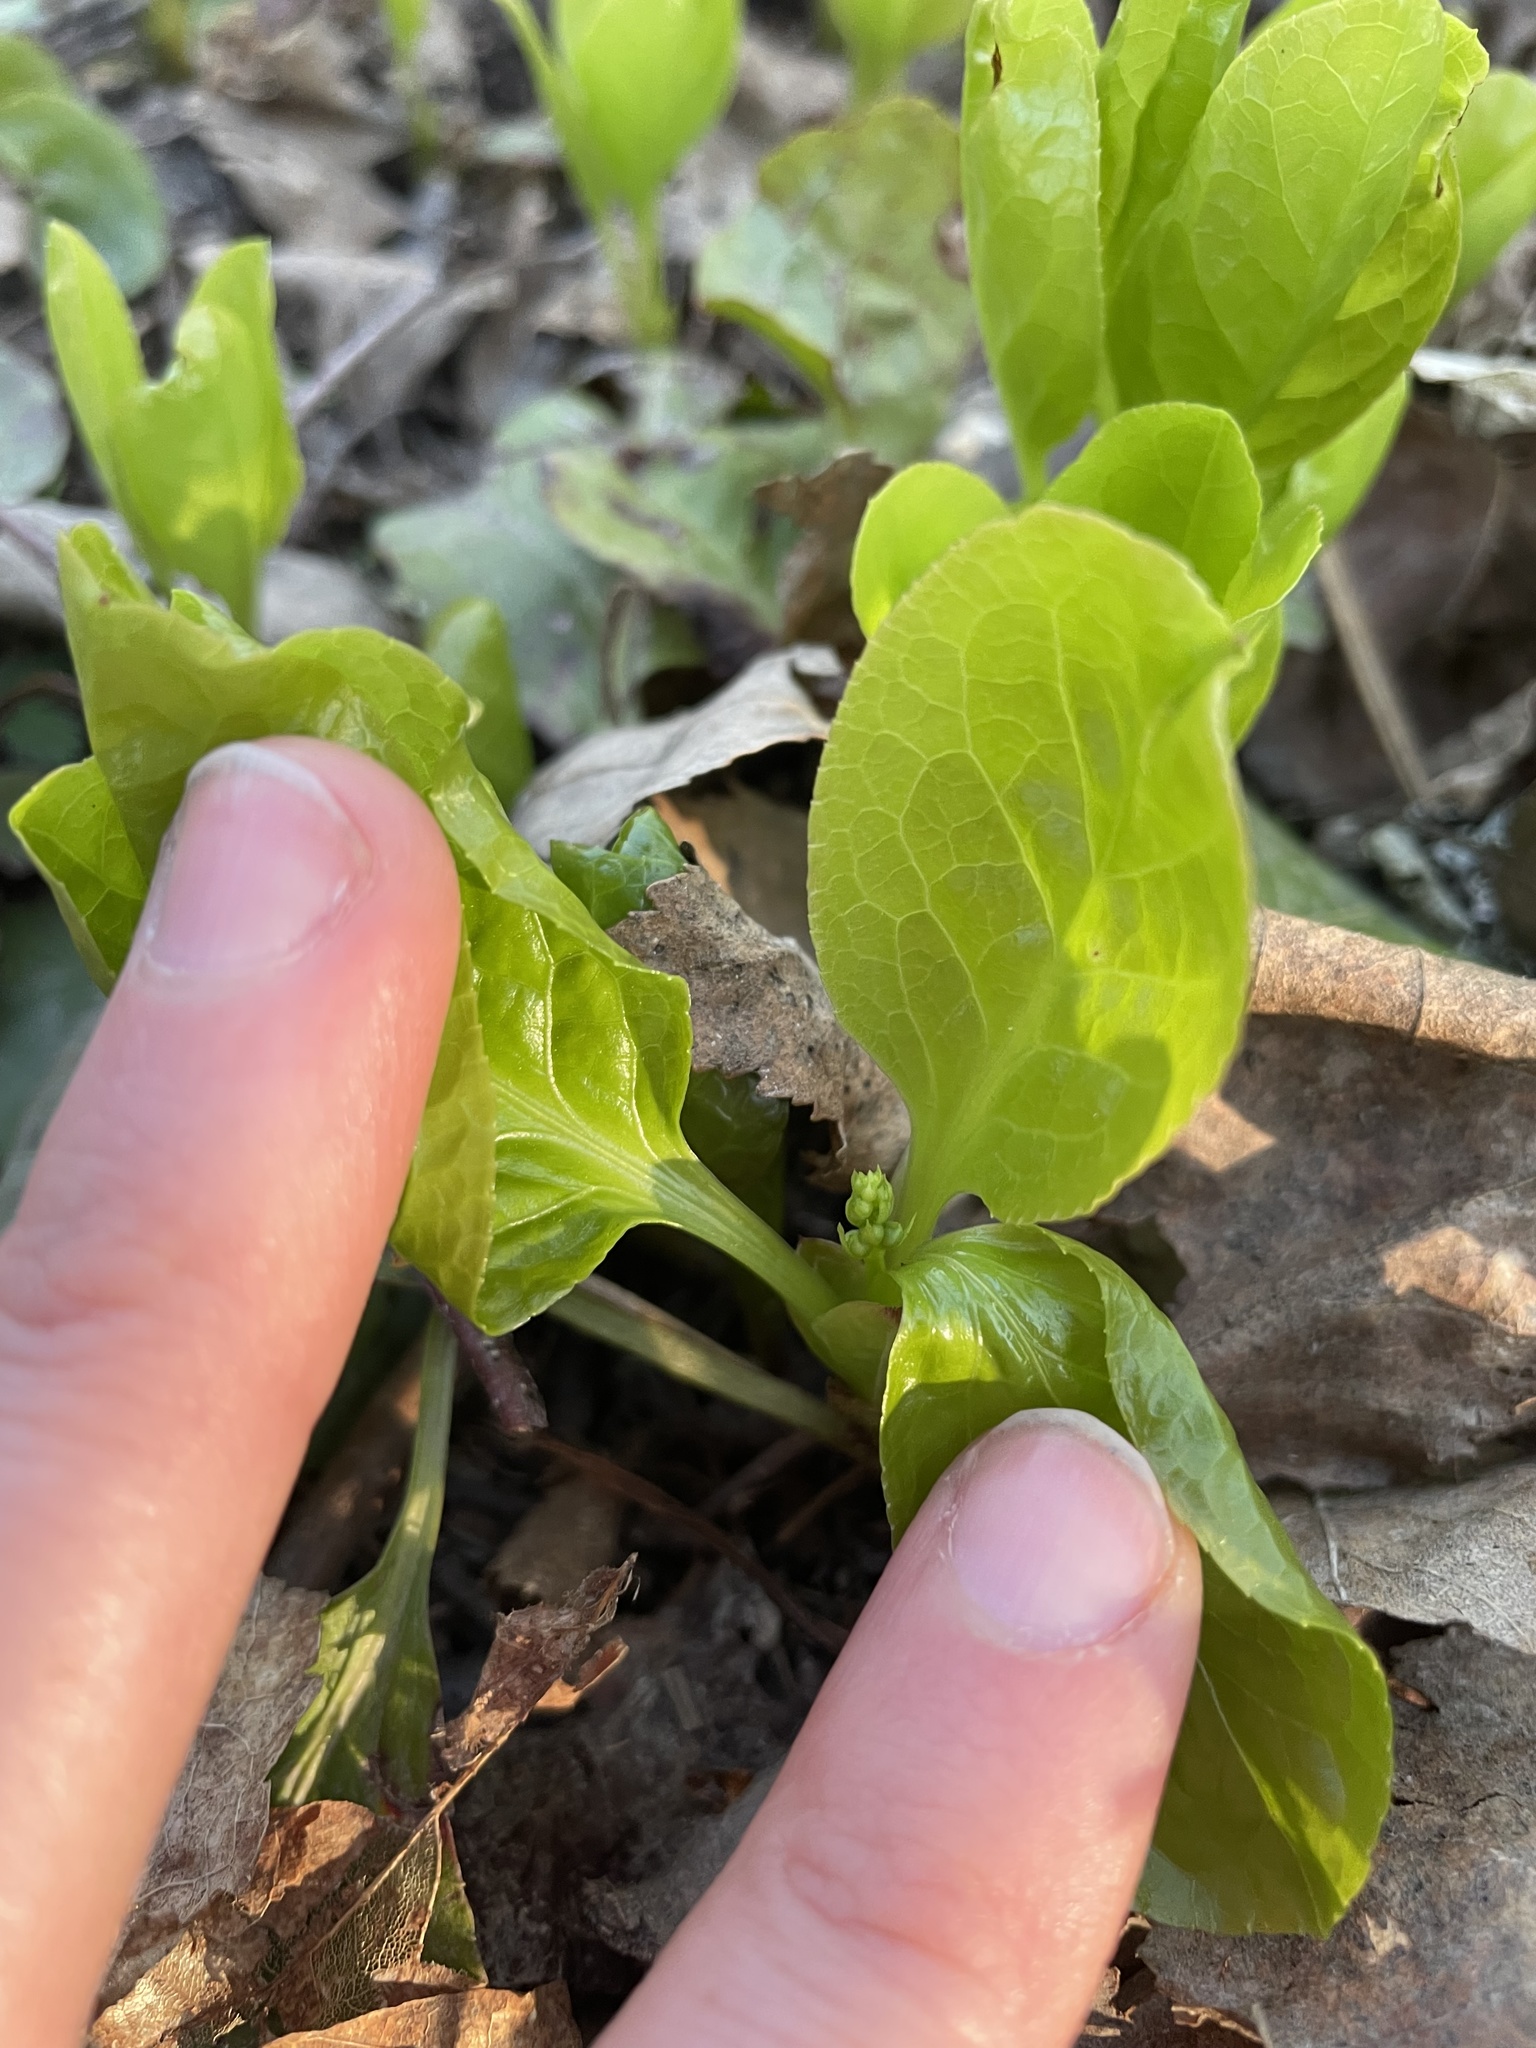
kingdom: Plantae
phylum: Tracheophyta
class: Magnoliopsida
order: Ericales
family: Ericaceae
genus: Pyrola
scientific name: Pyrola elliptica
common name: Shinleaf
